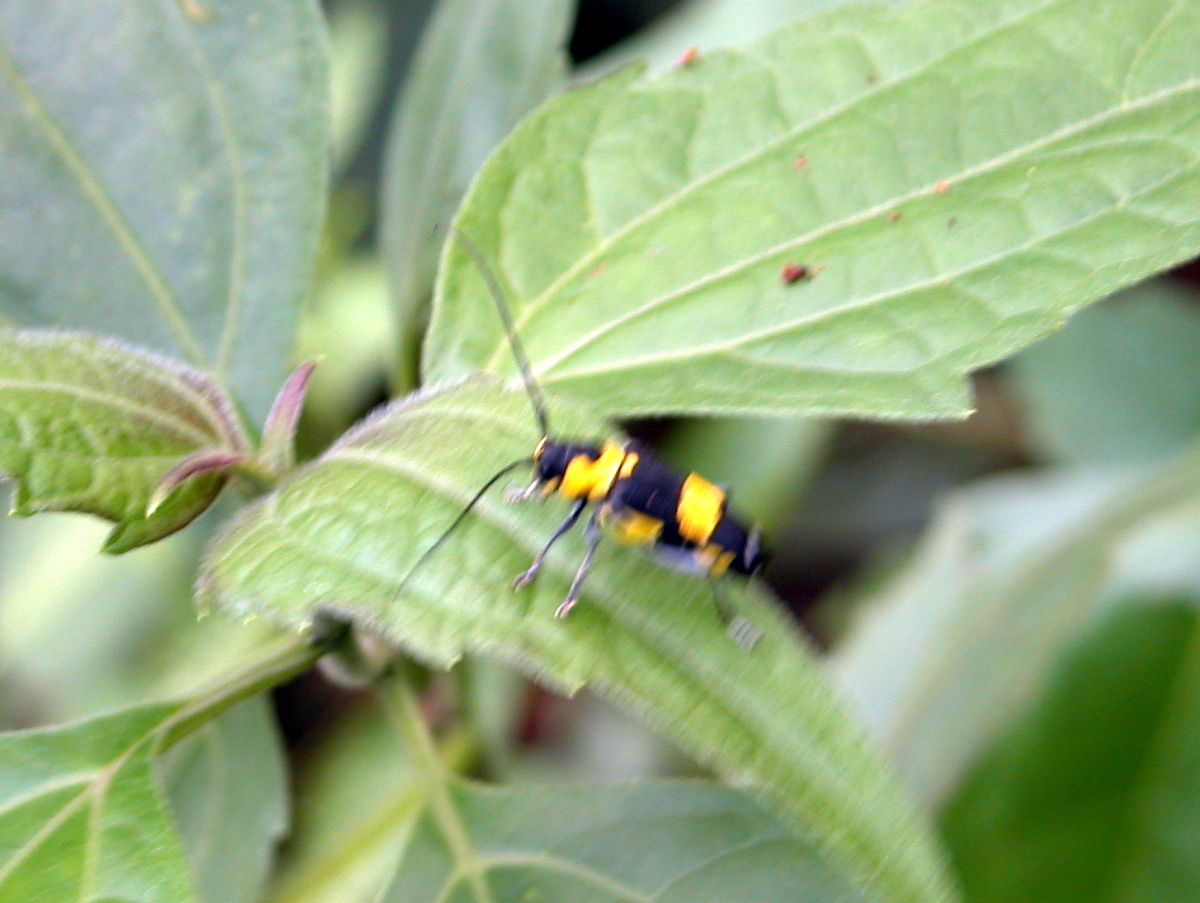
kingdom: Animalia
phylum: Arthropoda
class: Insecta
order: Coleoptera
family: Cerambycidae
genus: Glenea
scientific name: Glenea indiana
